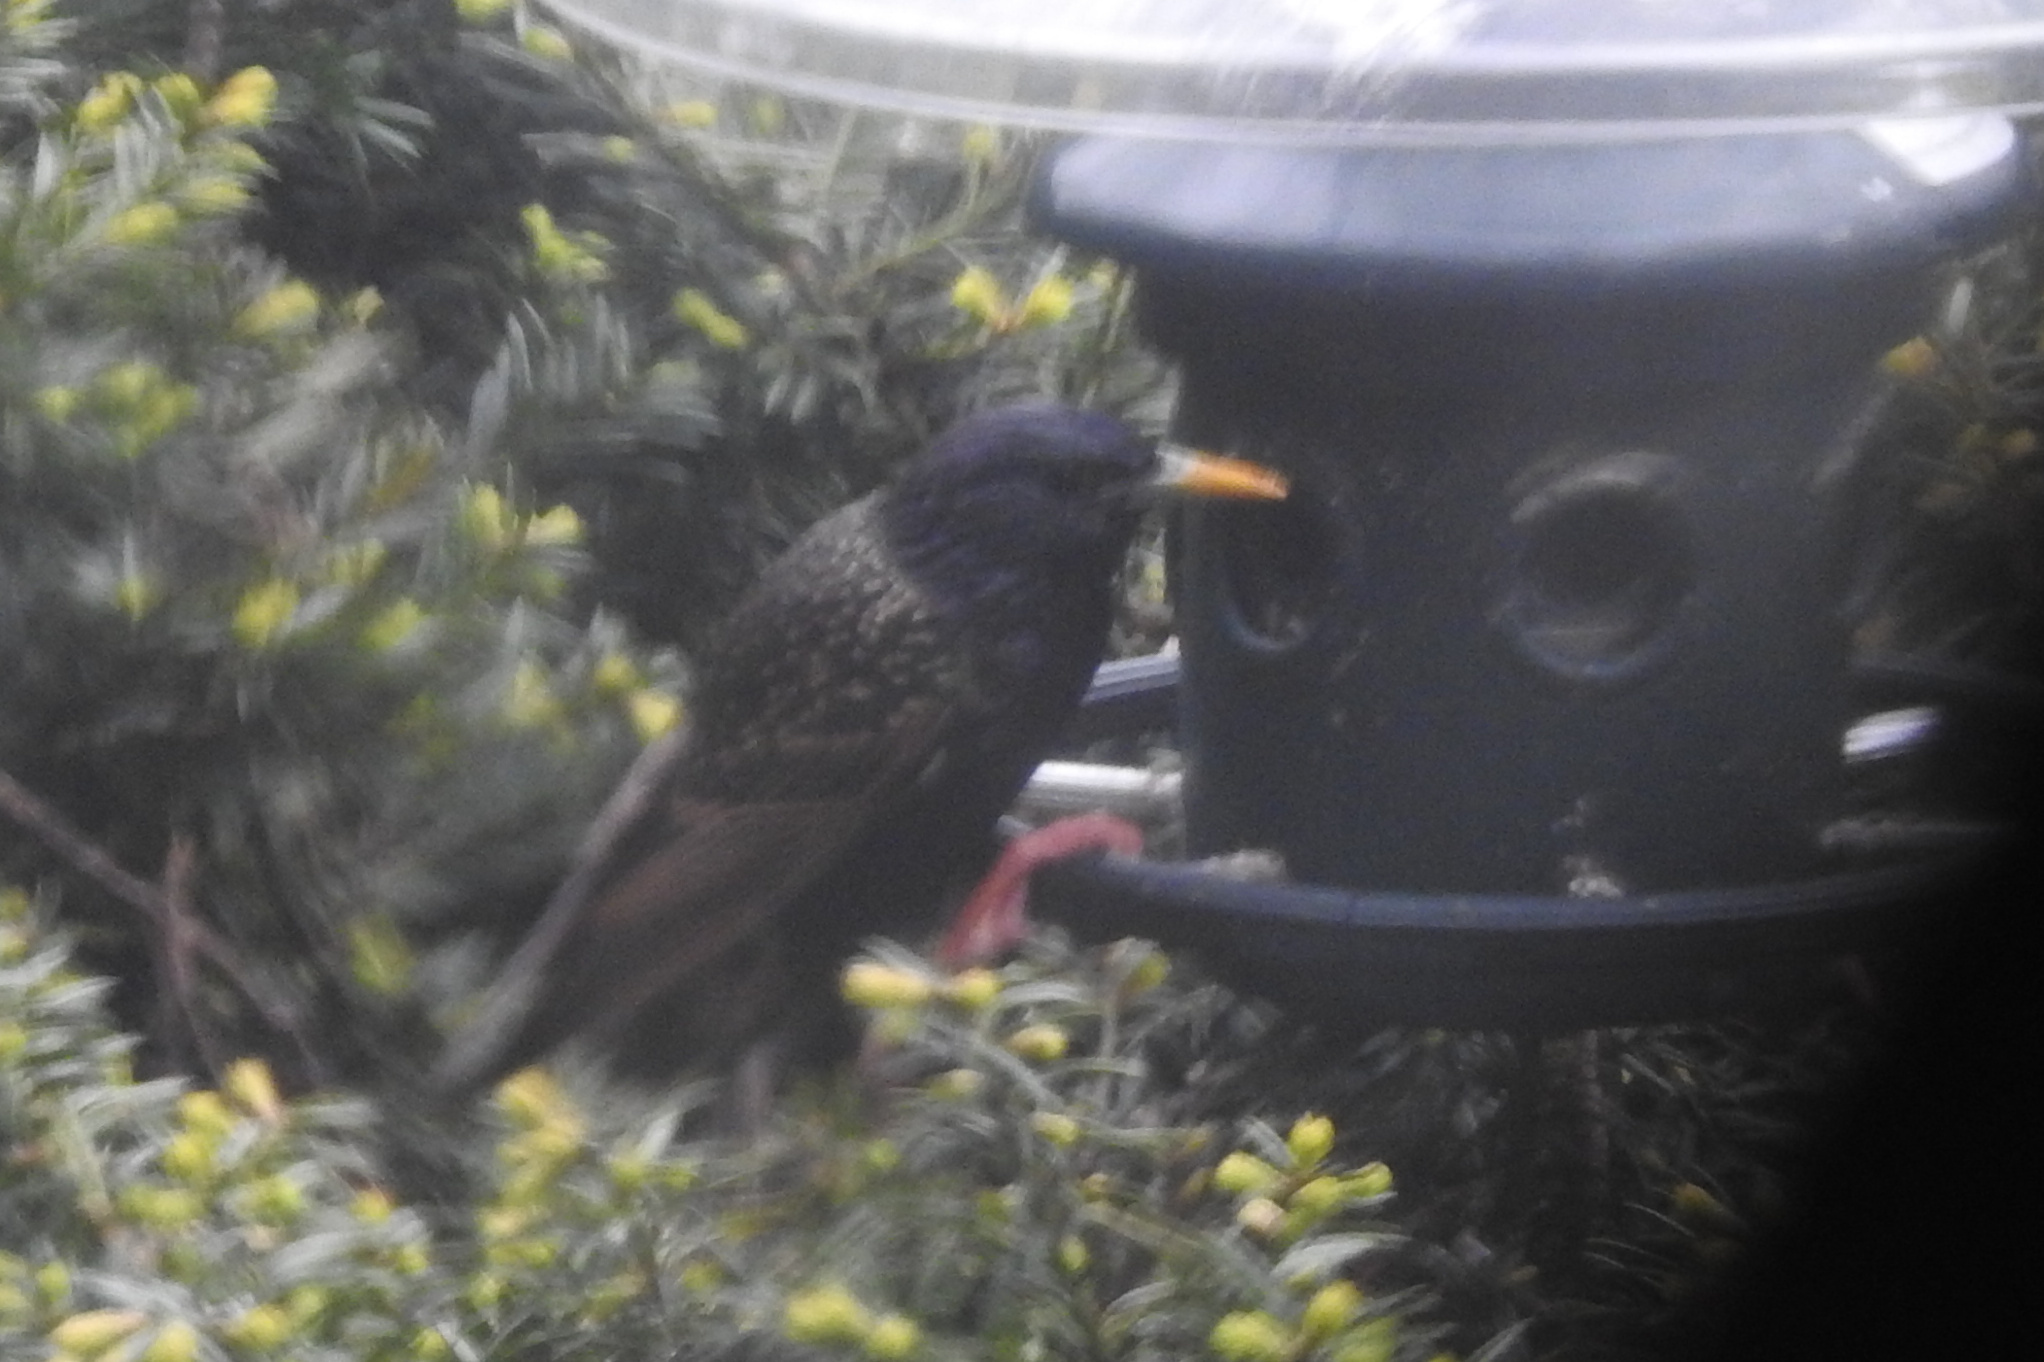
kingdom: Animalia
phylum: Chordata
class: Aves
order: Passeriformes
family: Sturnidae
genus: Sturnus
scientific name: Sturnus vulgaris
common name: Common starling
